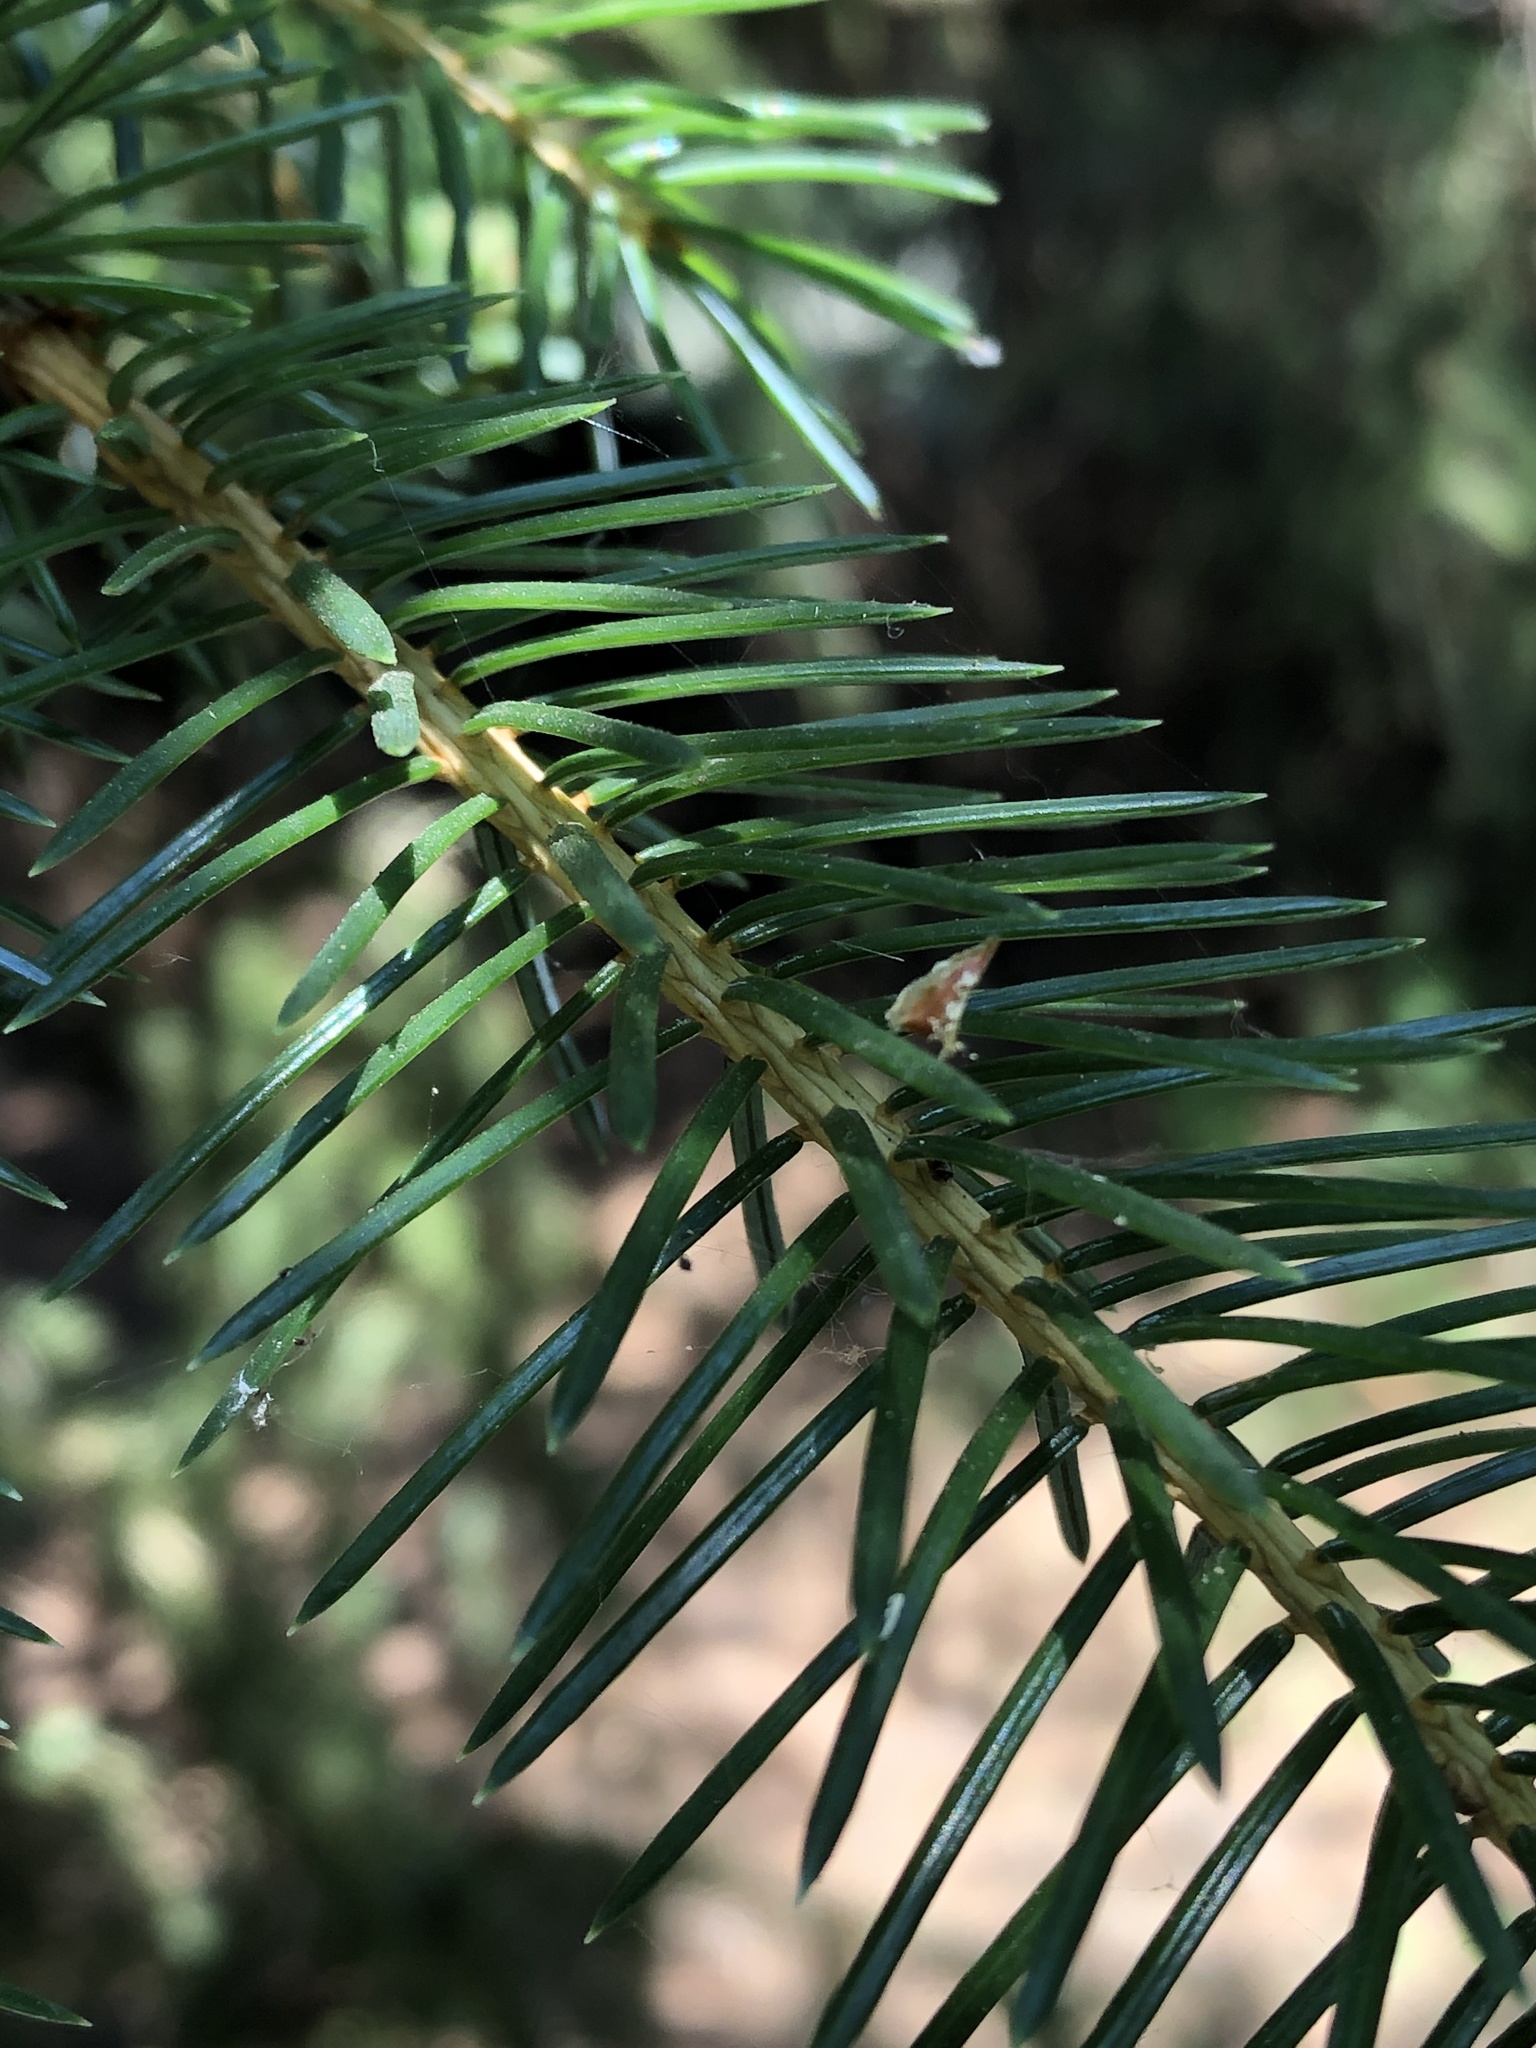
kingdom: Plantae
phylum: Tracheophyta
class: Pinopsida
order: Pinales
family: Pinaceae
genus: Picea
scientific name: Picea sitchensis
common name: Sitka spruce
